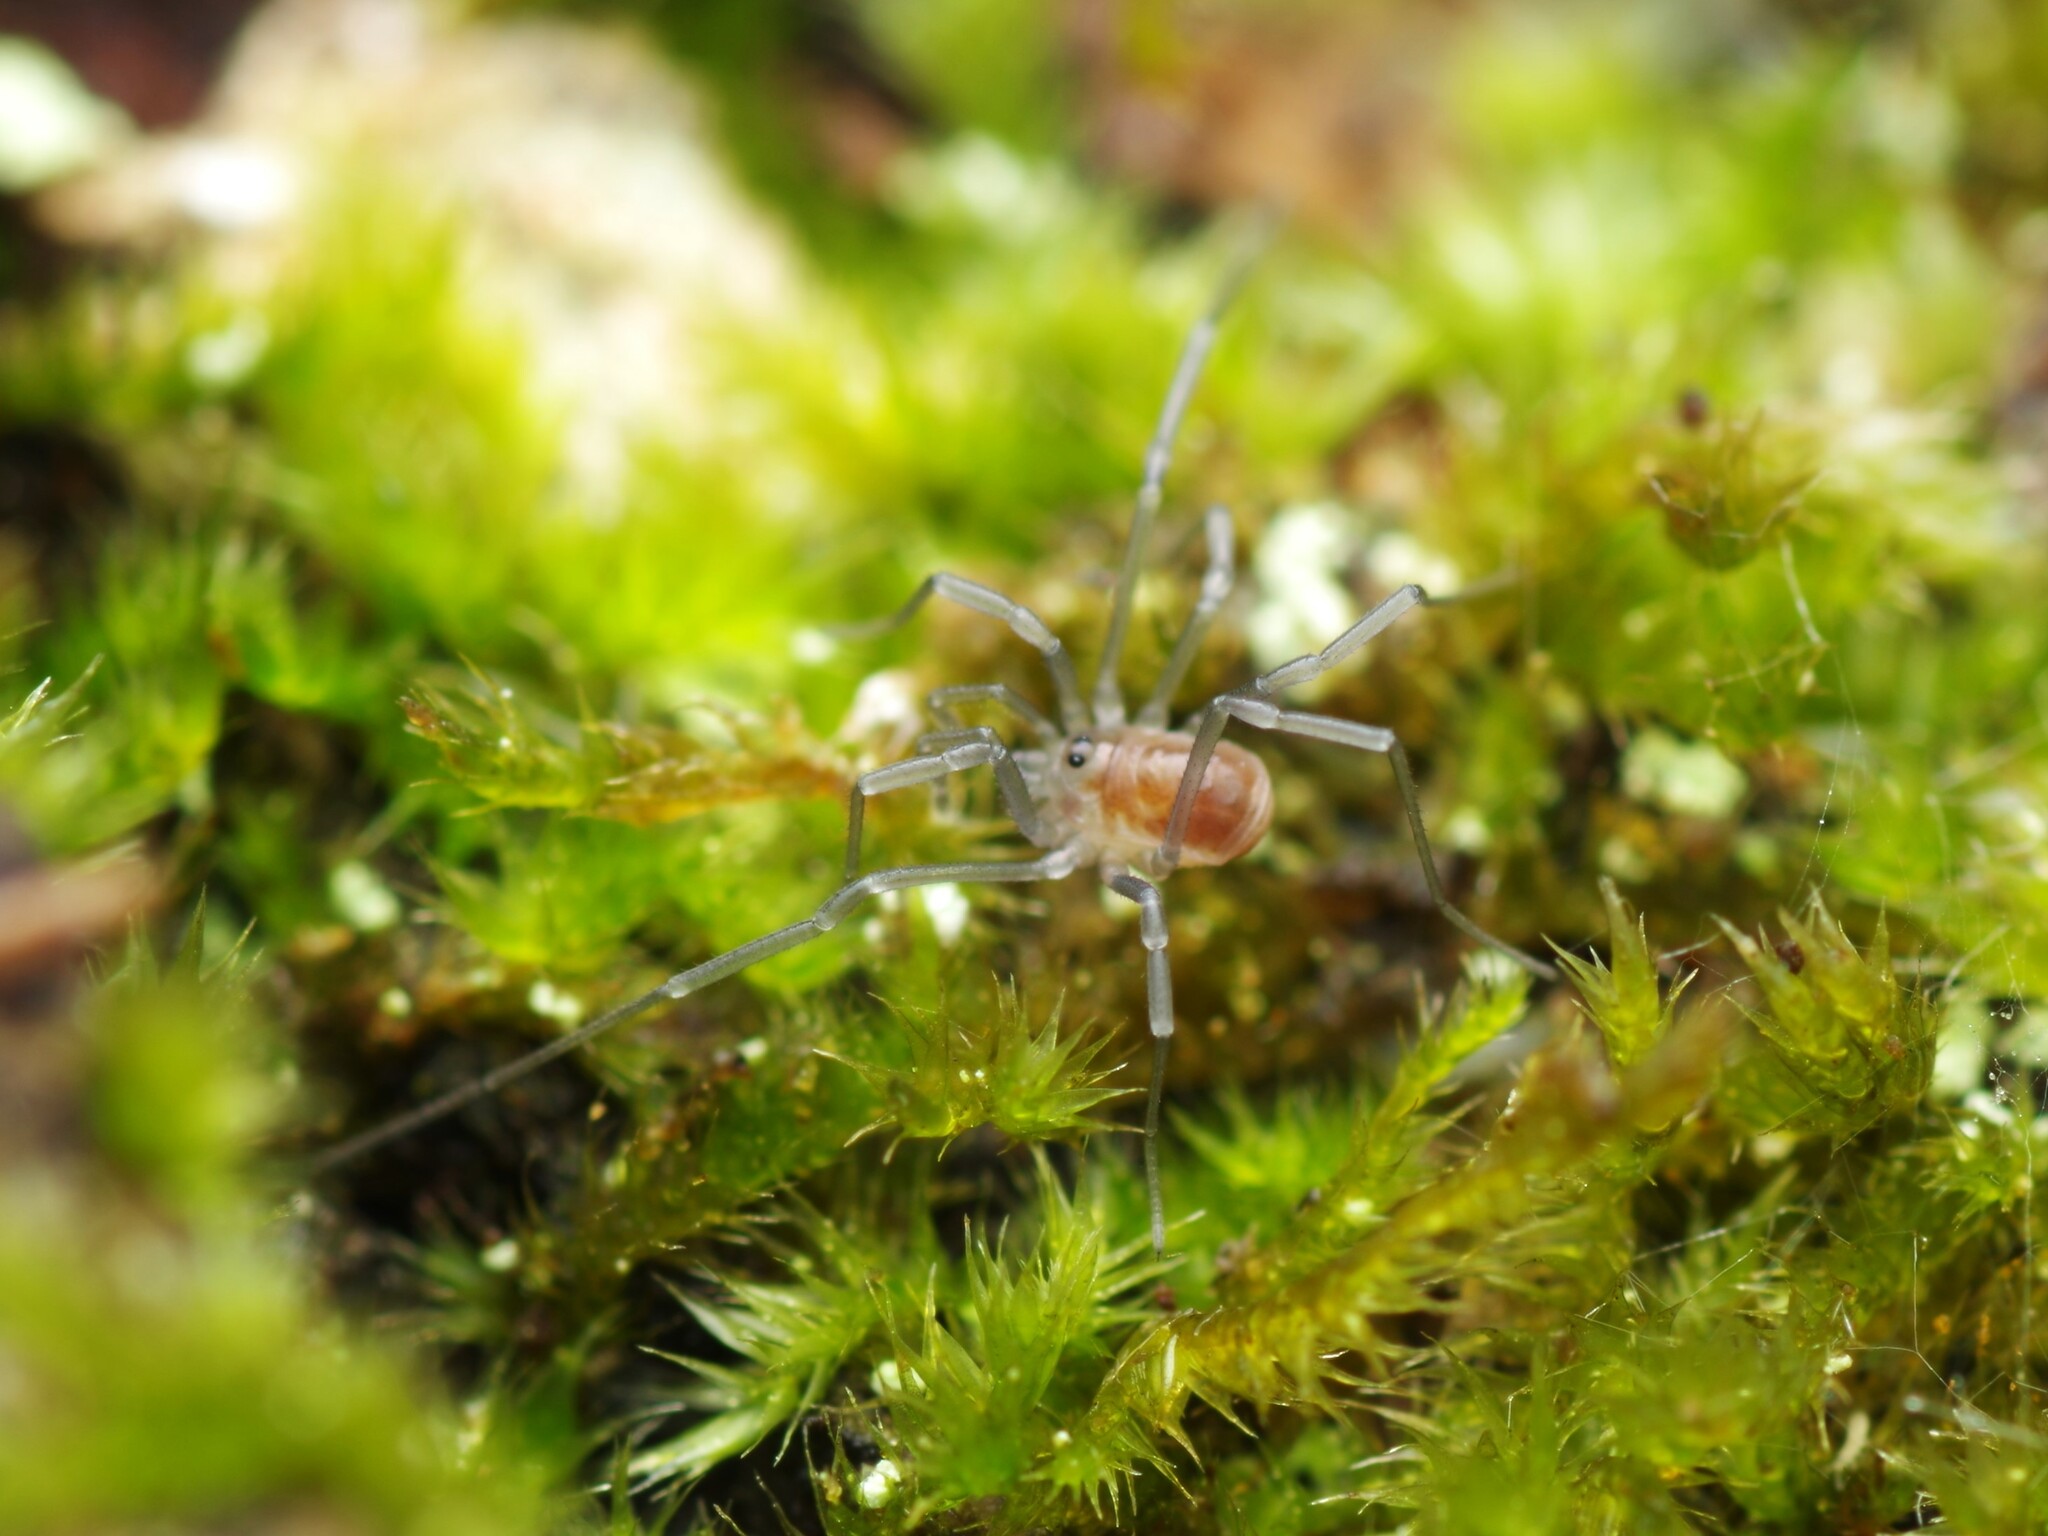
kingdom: Animalia
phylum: Arthropoda
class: Arachnida
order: Opiliones
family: Nemastomatidae
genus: Mitostoma
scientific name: Mitostoma chrysomelas
